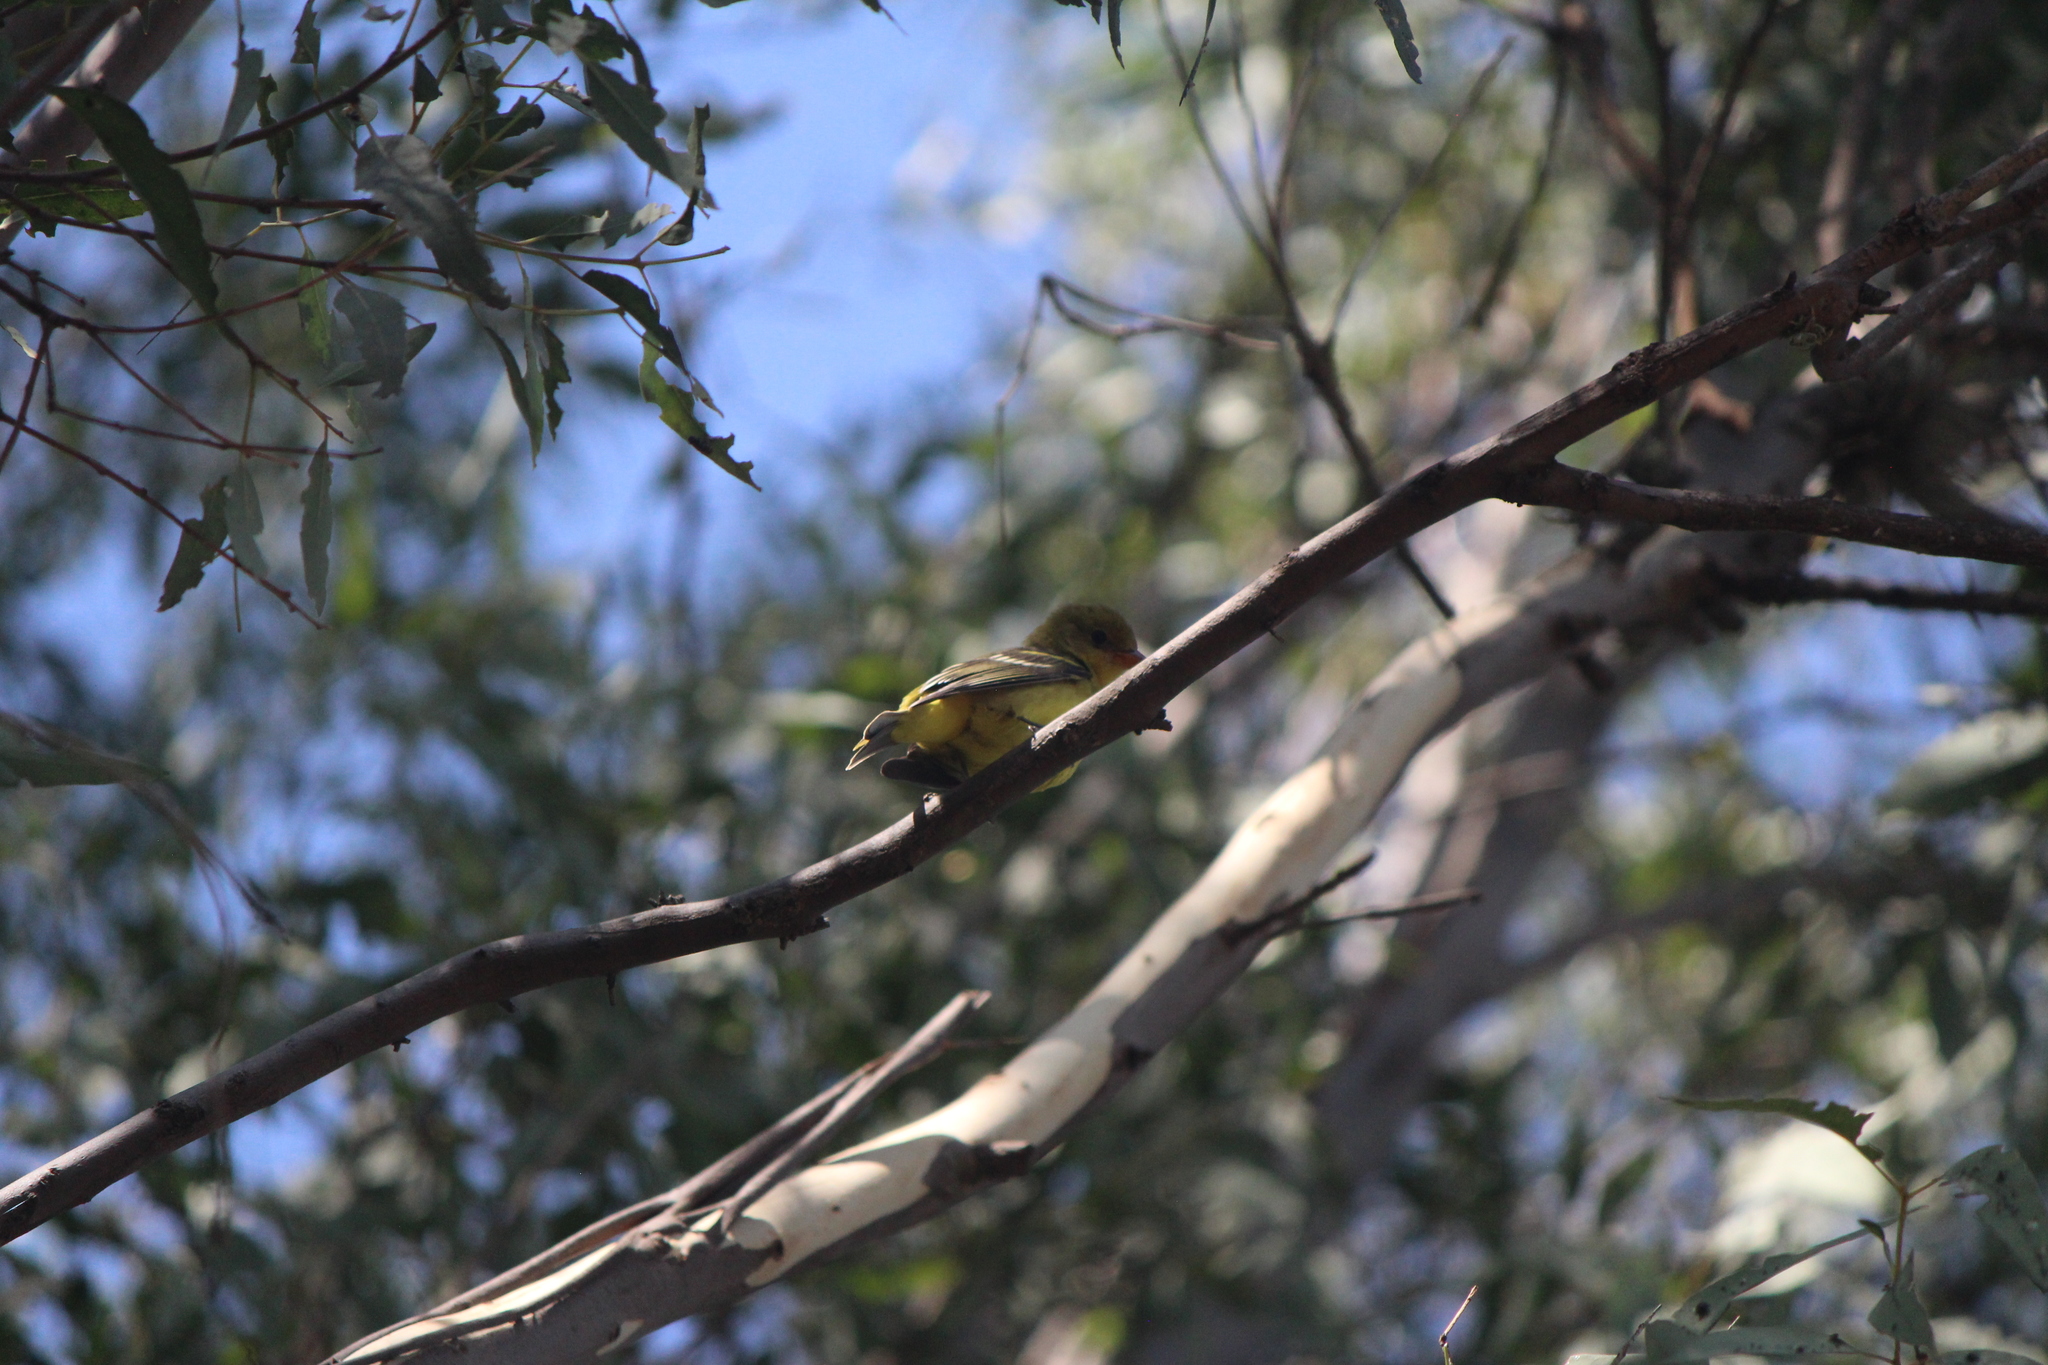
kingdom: Animalia
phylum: Chordata
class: Aves
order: Passeriformes
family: Cardinalidae
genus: Piranga
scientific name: Piranga ludoviciana
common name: Western tanager
